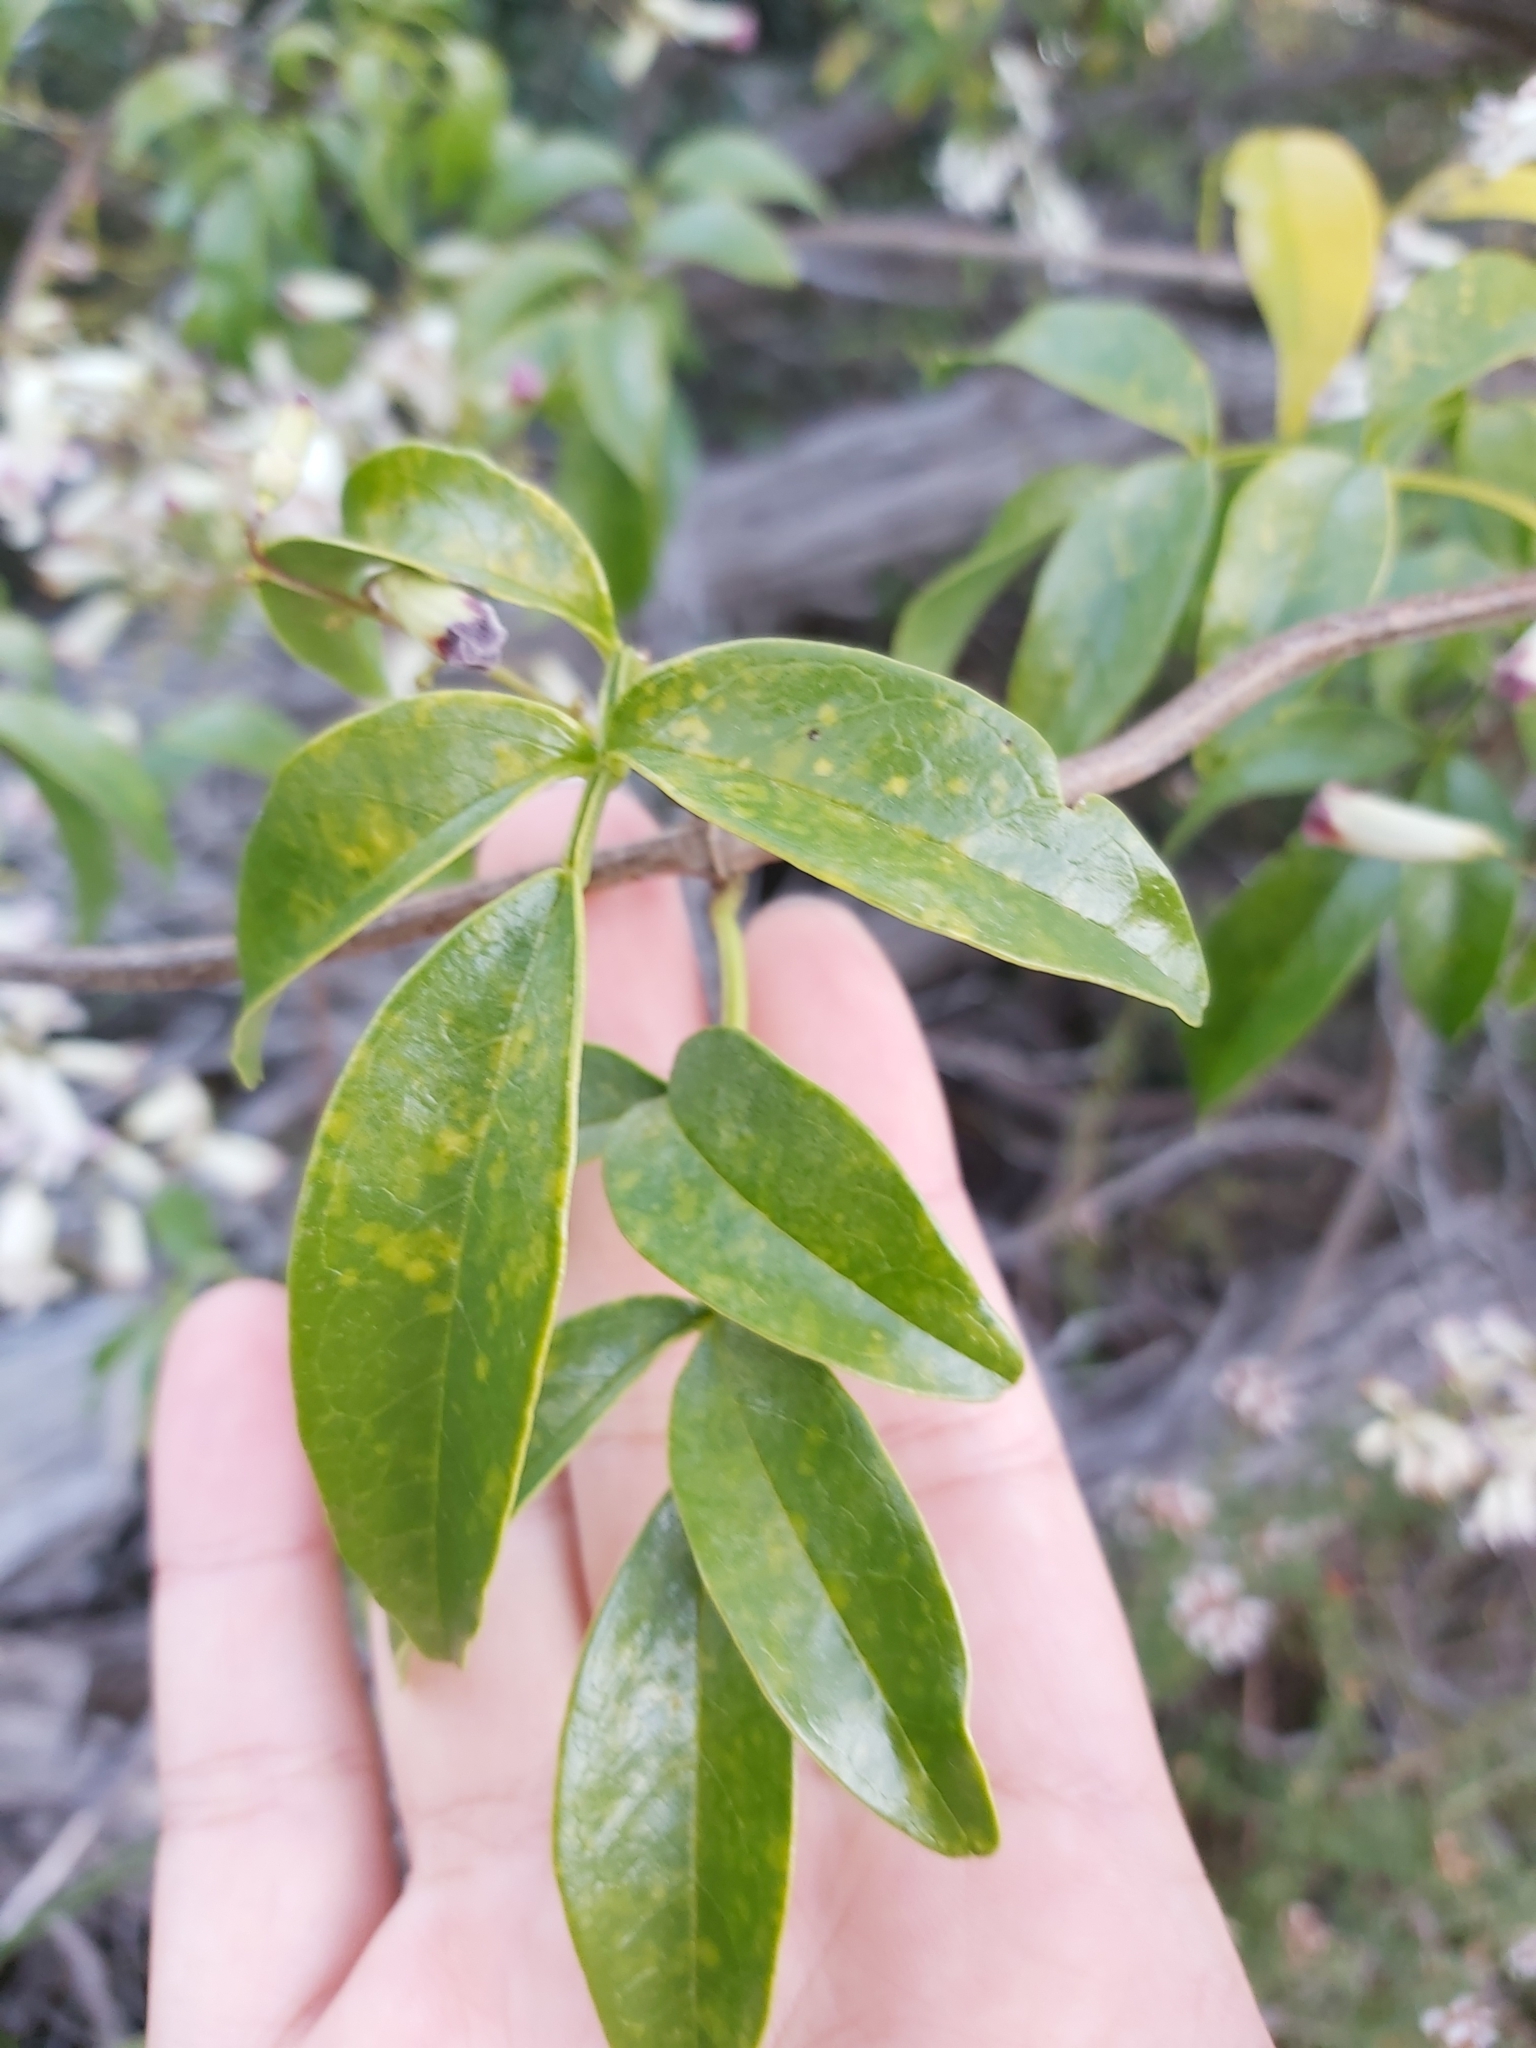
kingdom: Plantae
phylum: Tracheophyta
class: Magnoliopsida
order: Lamiales
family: Bignoniaceae
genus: Pandorea
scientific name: Pandorea pandorana
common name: Wonga-wonga-vine
